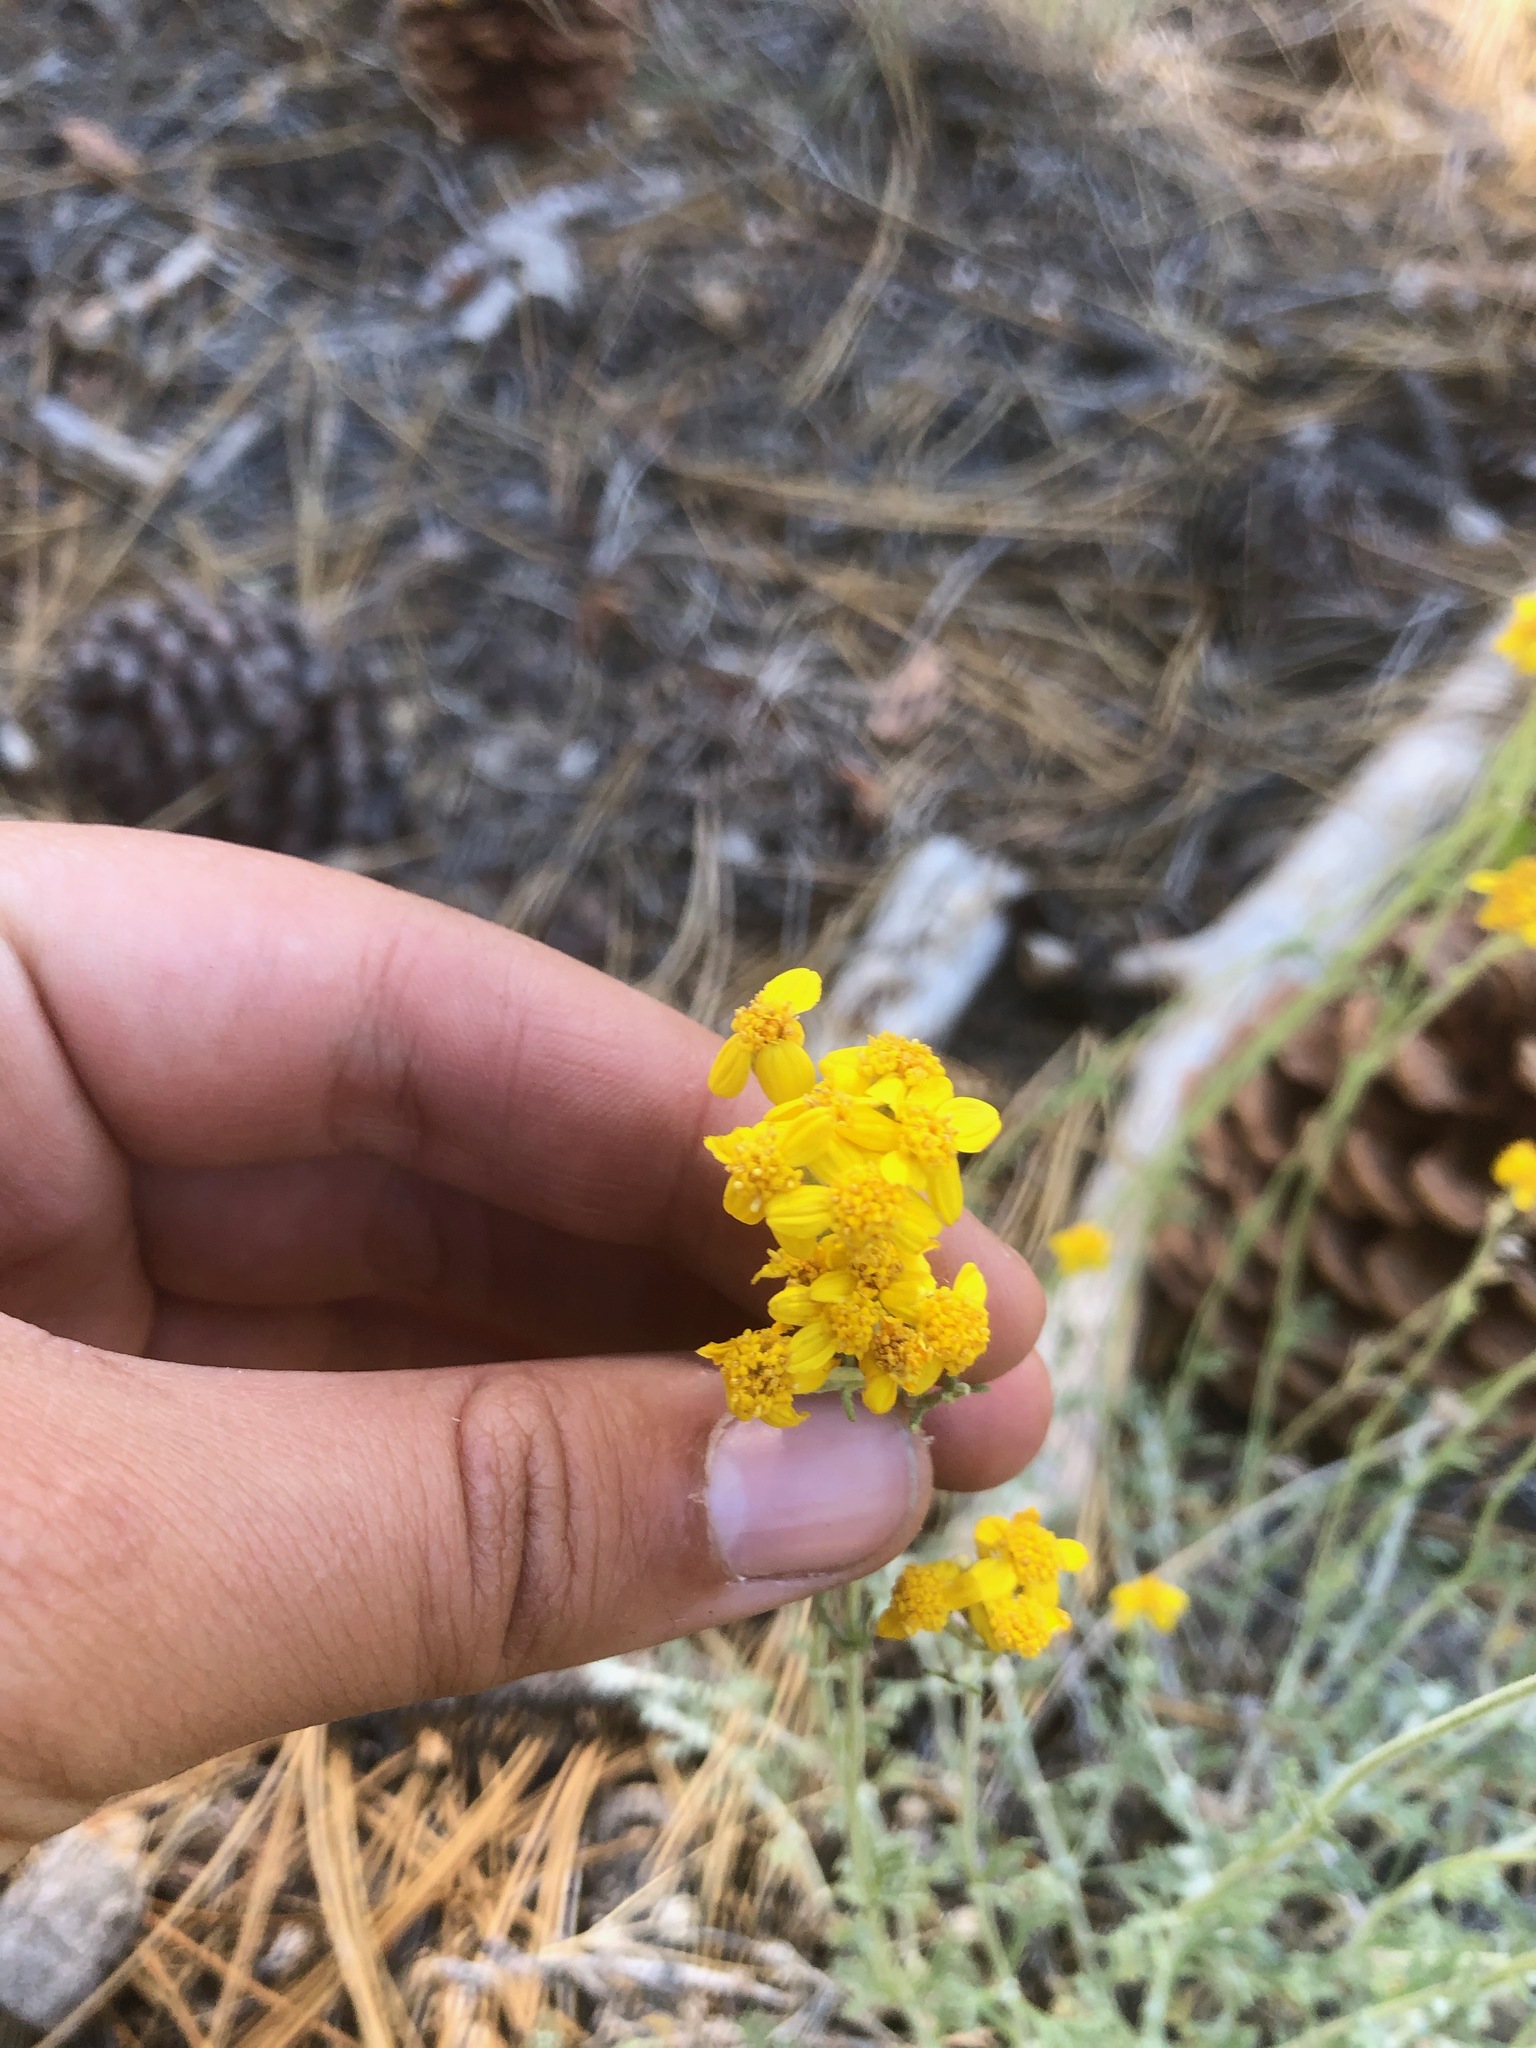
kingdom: Plantae
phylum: Tracheophyta
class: Magnoliopsida
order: Asterales
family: Asteraceae
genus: Eriophyllum
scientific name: Eriophyllum confertiflorum
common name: Golden-yarrow
